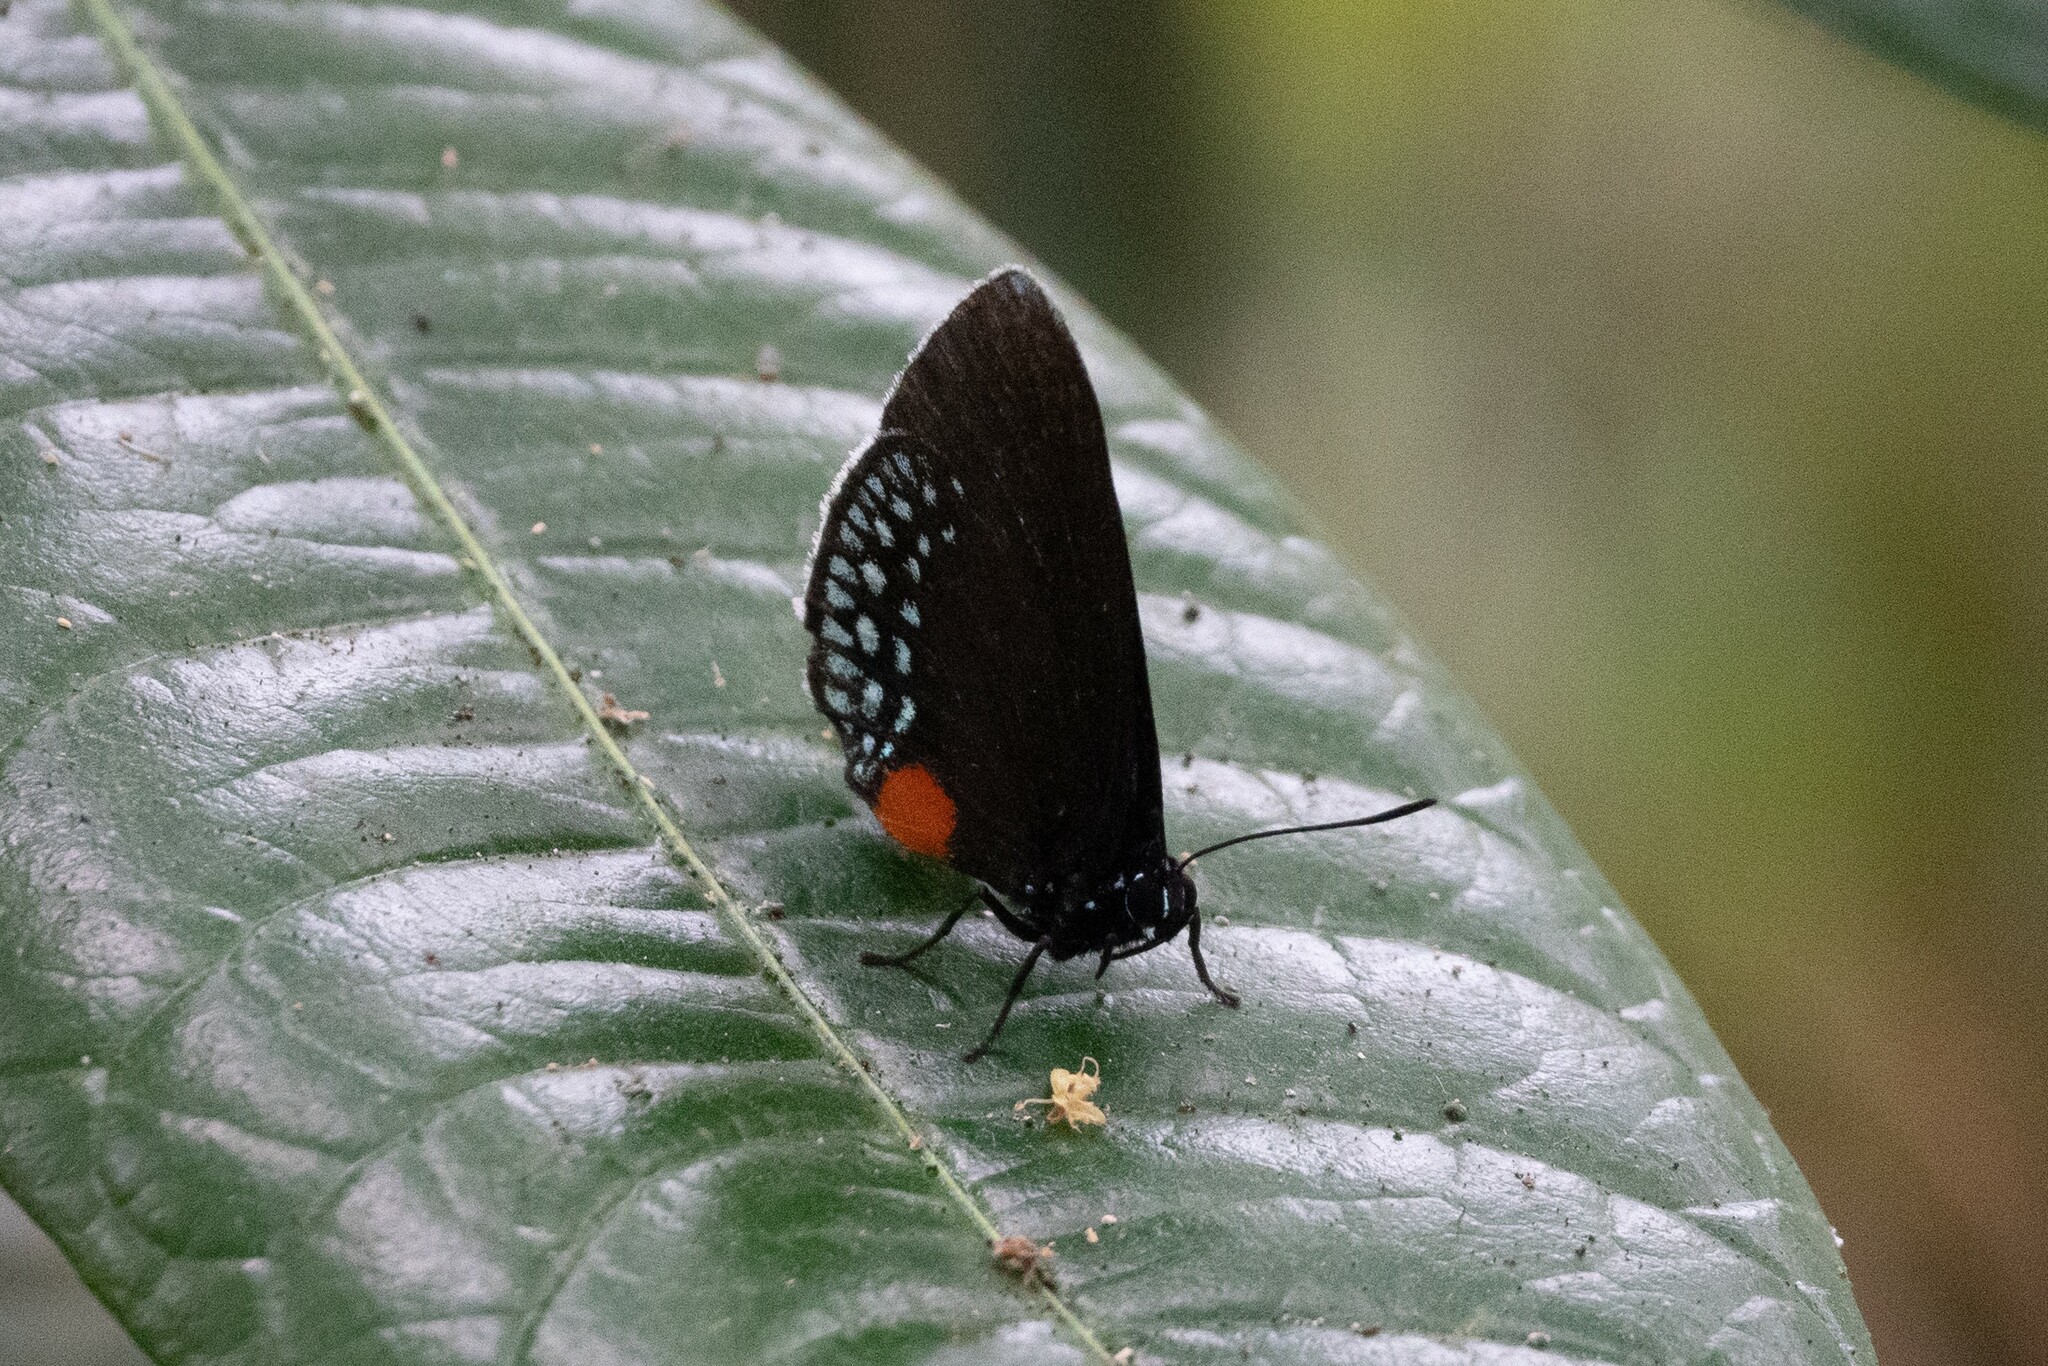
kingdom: Animalia
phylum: Arthropoda
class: Insecta
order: Lepidoptera
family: Lycaenidae
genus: Eumaeus
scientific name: Eumaeus godartii
